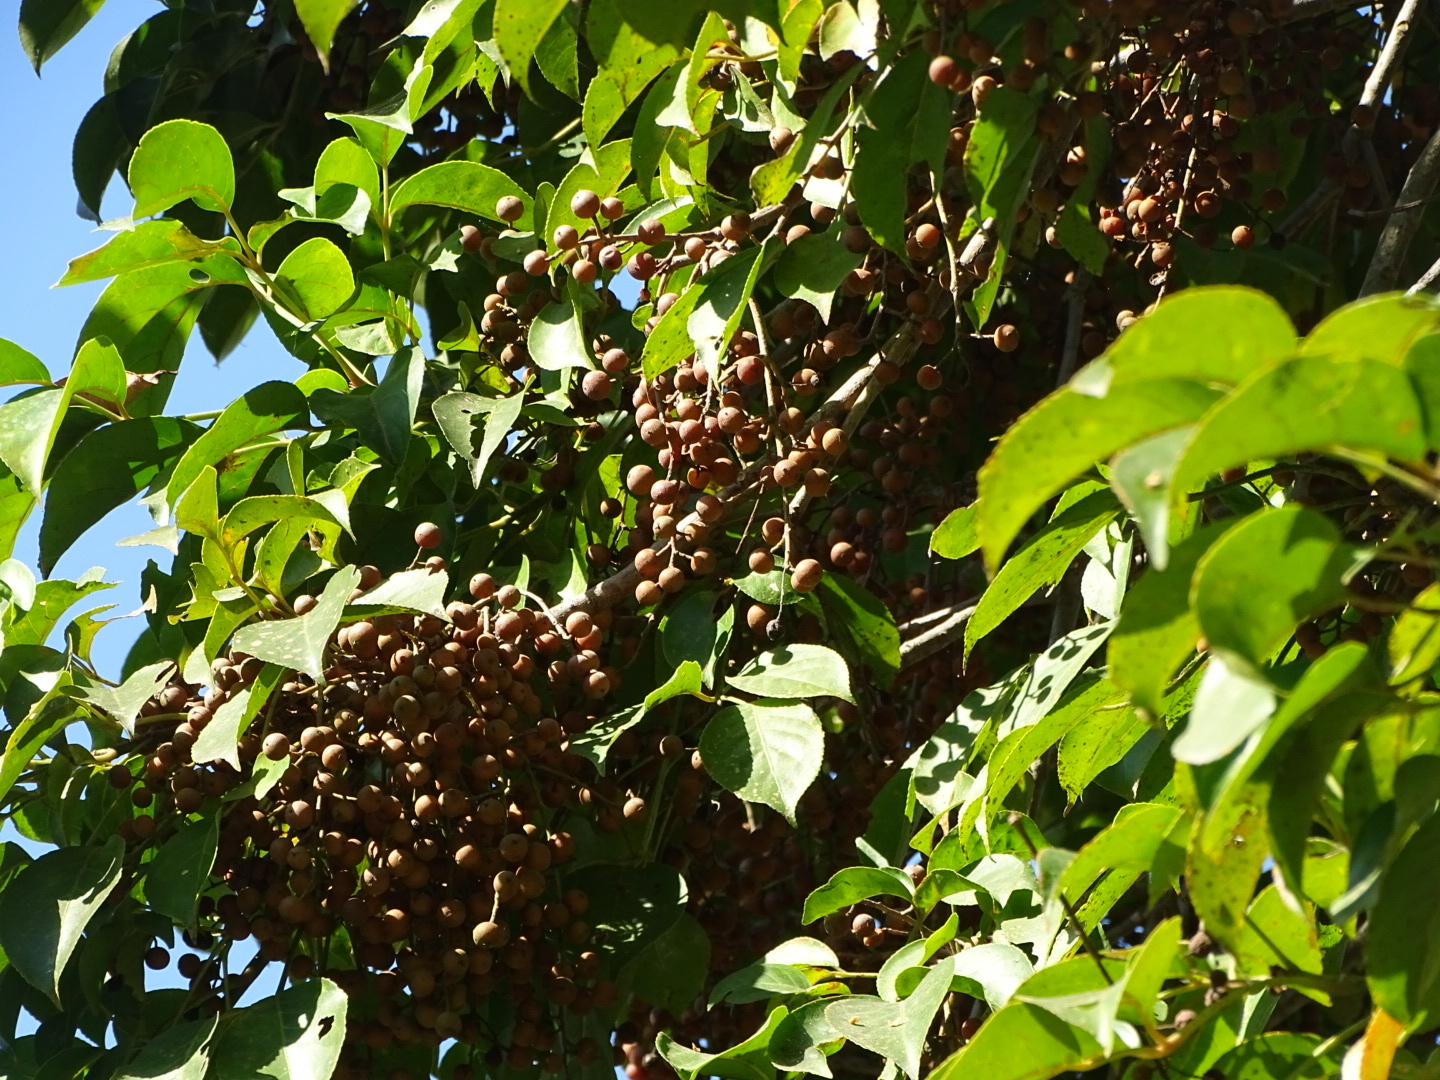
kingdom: Plantae
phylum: Tracheophyta
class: Magnoliopsida
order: Malpighiales
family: Phyllanthaceae
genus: Bischofia
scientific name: Bischofia javanica
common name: Javanese bishopwood
